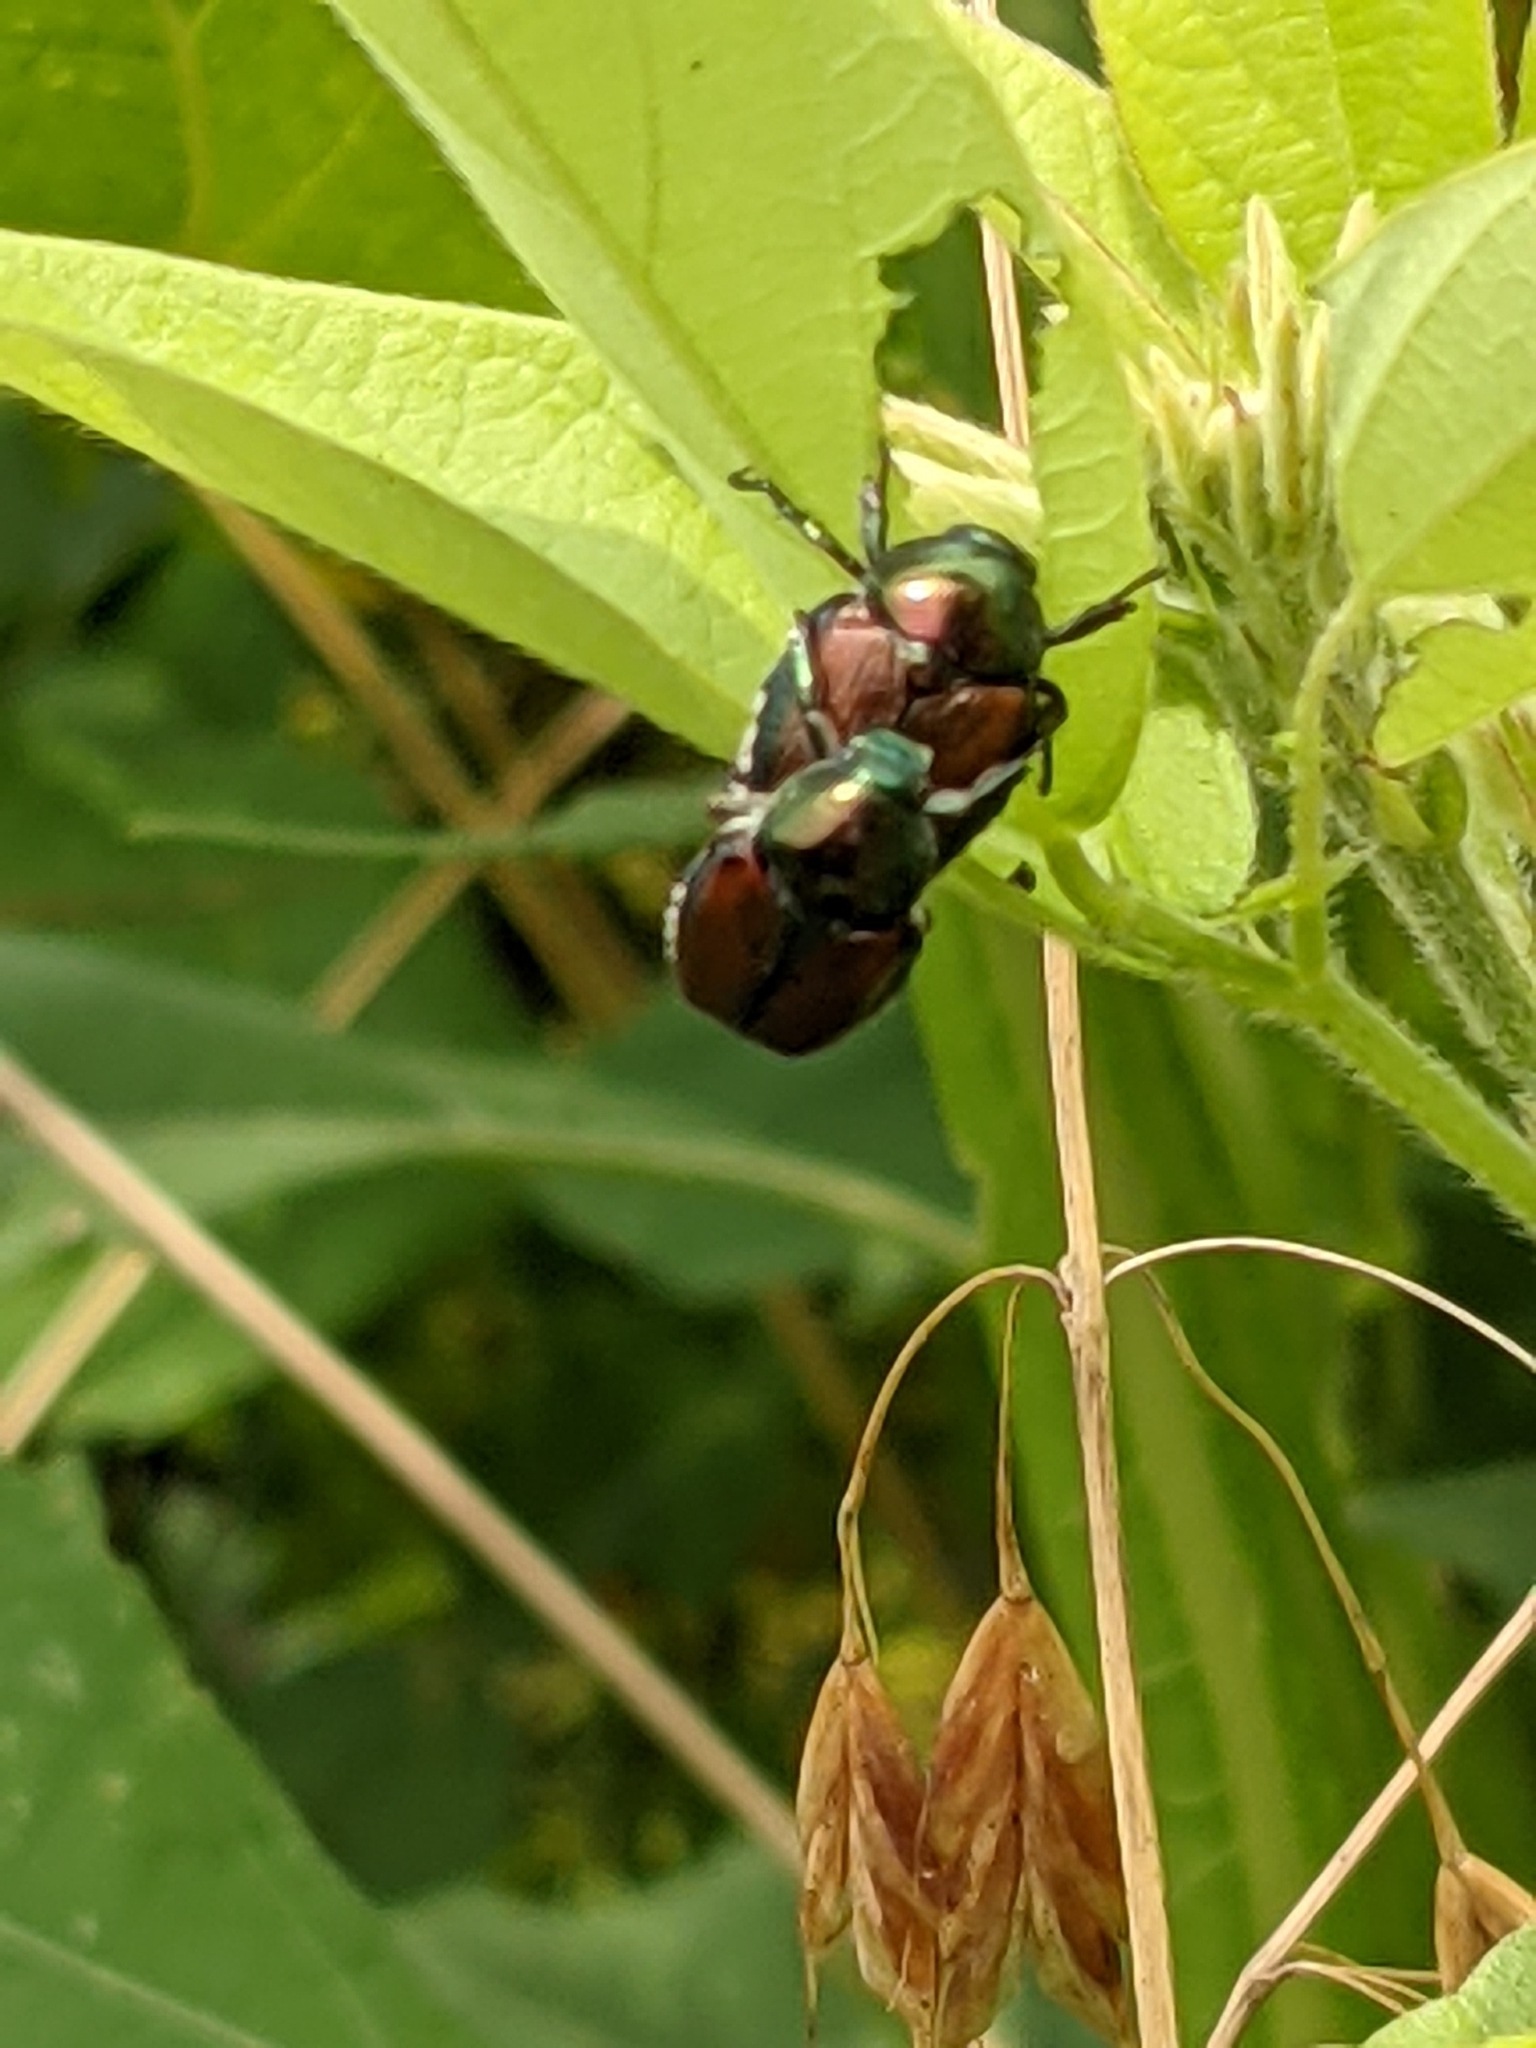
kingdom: Animalia
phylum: Arthropoda
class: Insecta
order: Coleoptera
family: Scarabaeidae
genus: Popillia
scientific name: Popillia japonica
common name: Japanese beetle
